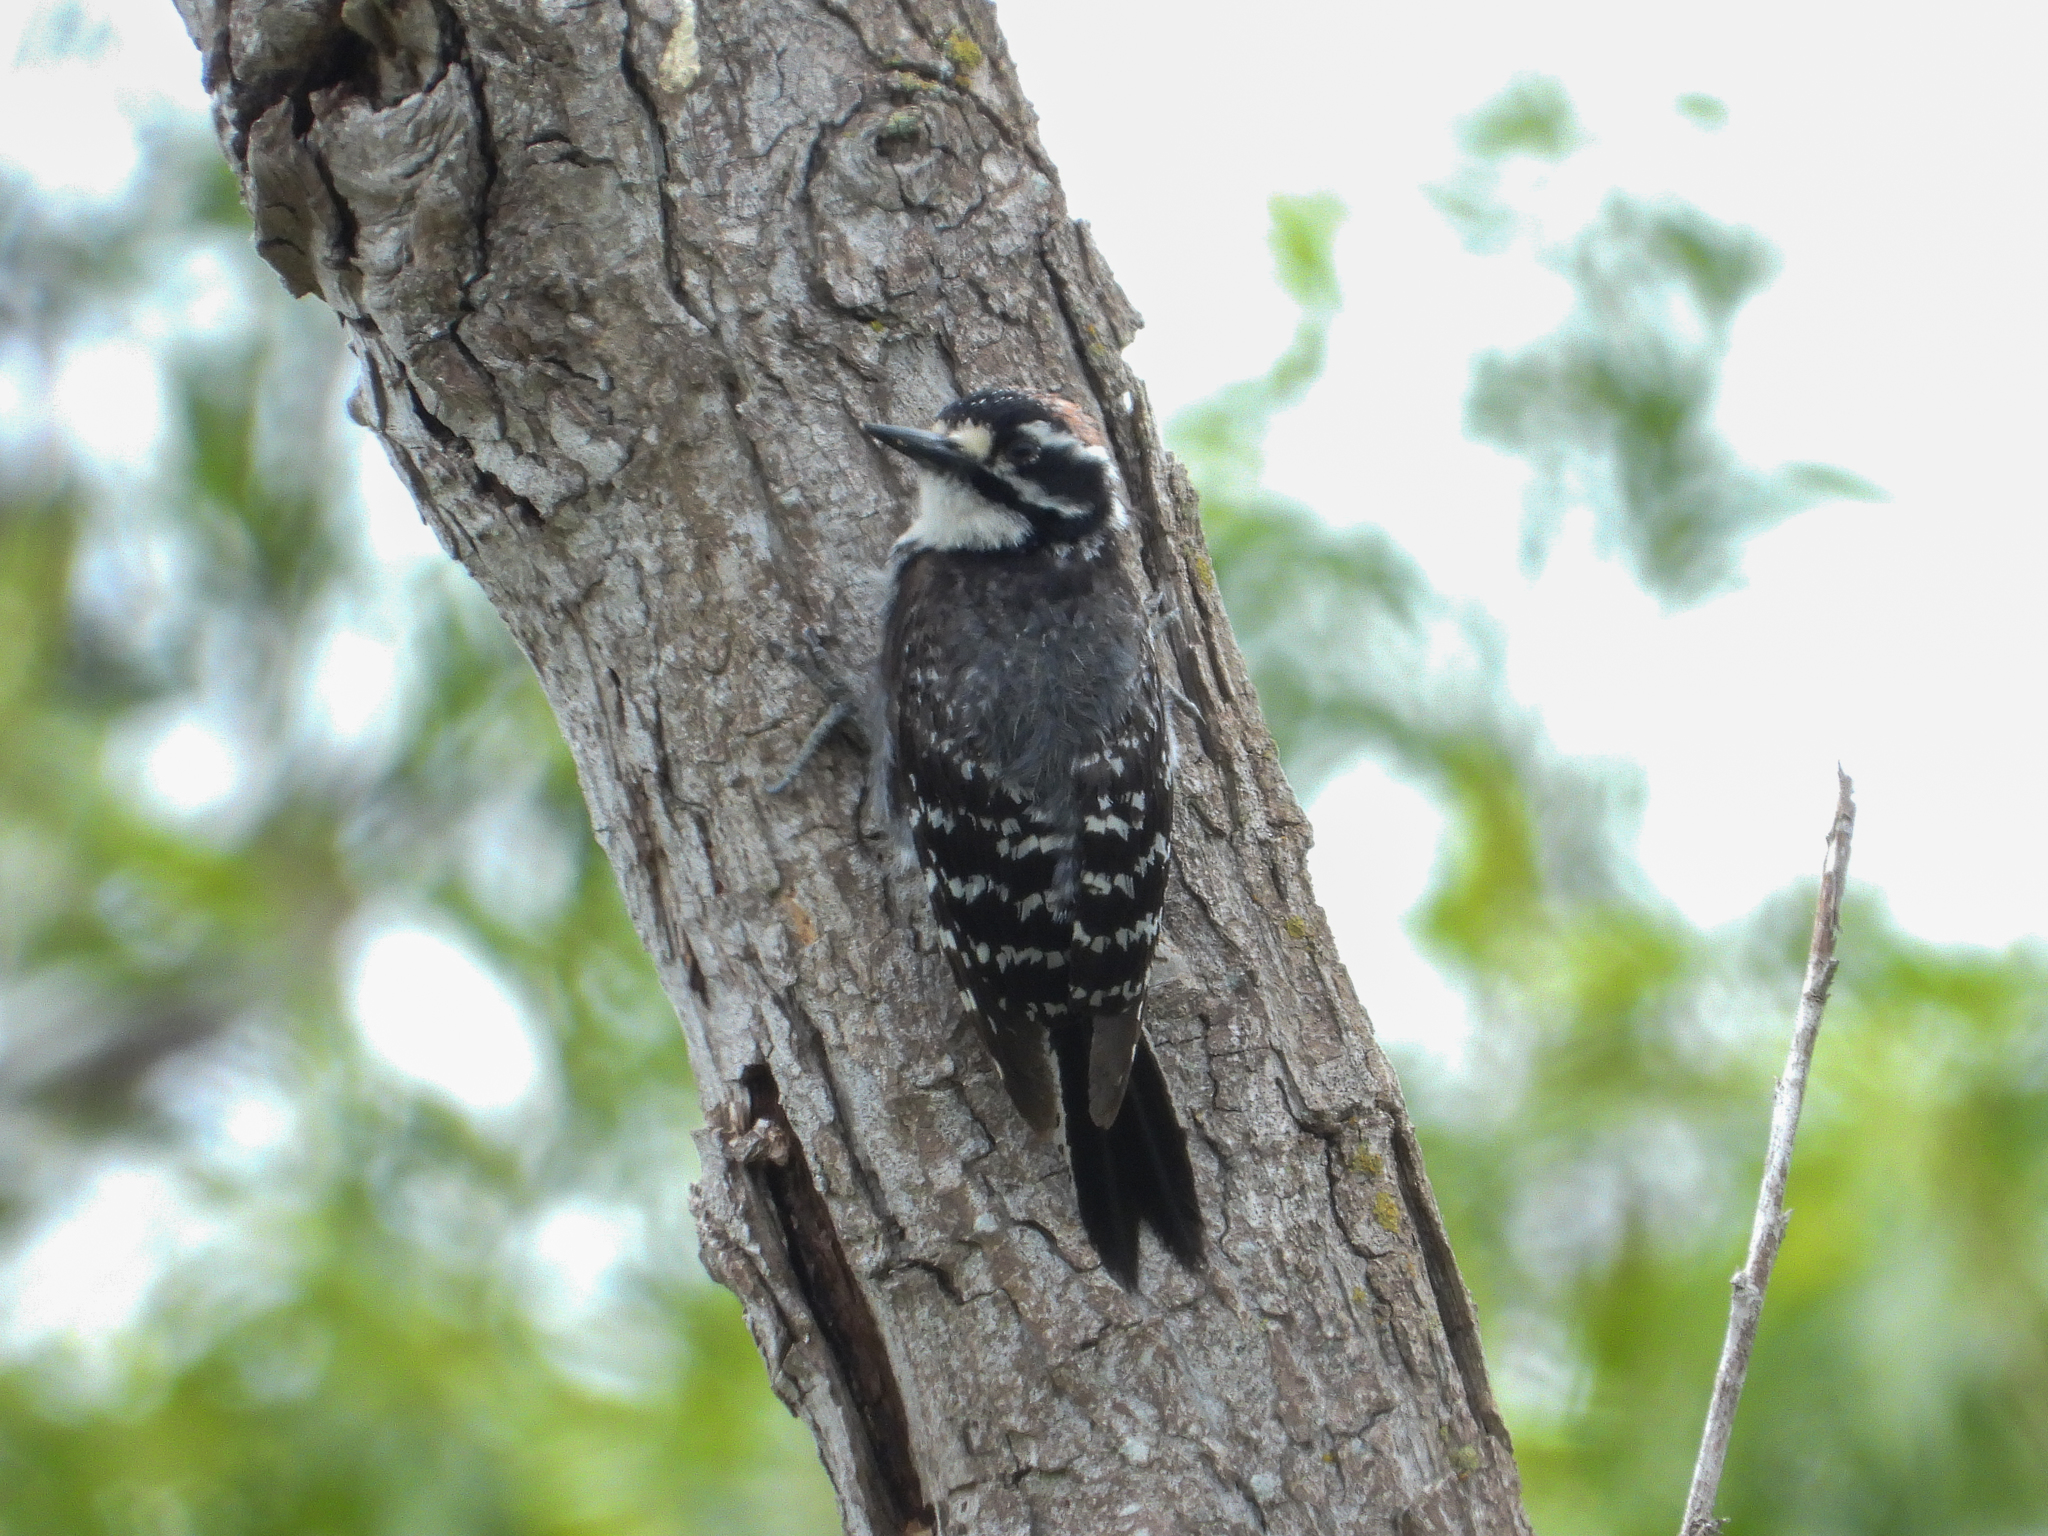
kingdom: Animalia
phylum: Chordata
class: Aves
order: Piciformes
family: Picidae
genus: Dryobates
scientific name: Dryobates nuttallii
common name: Nuttall's woodpecker
